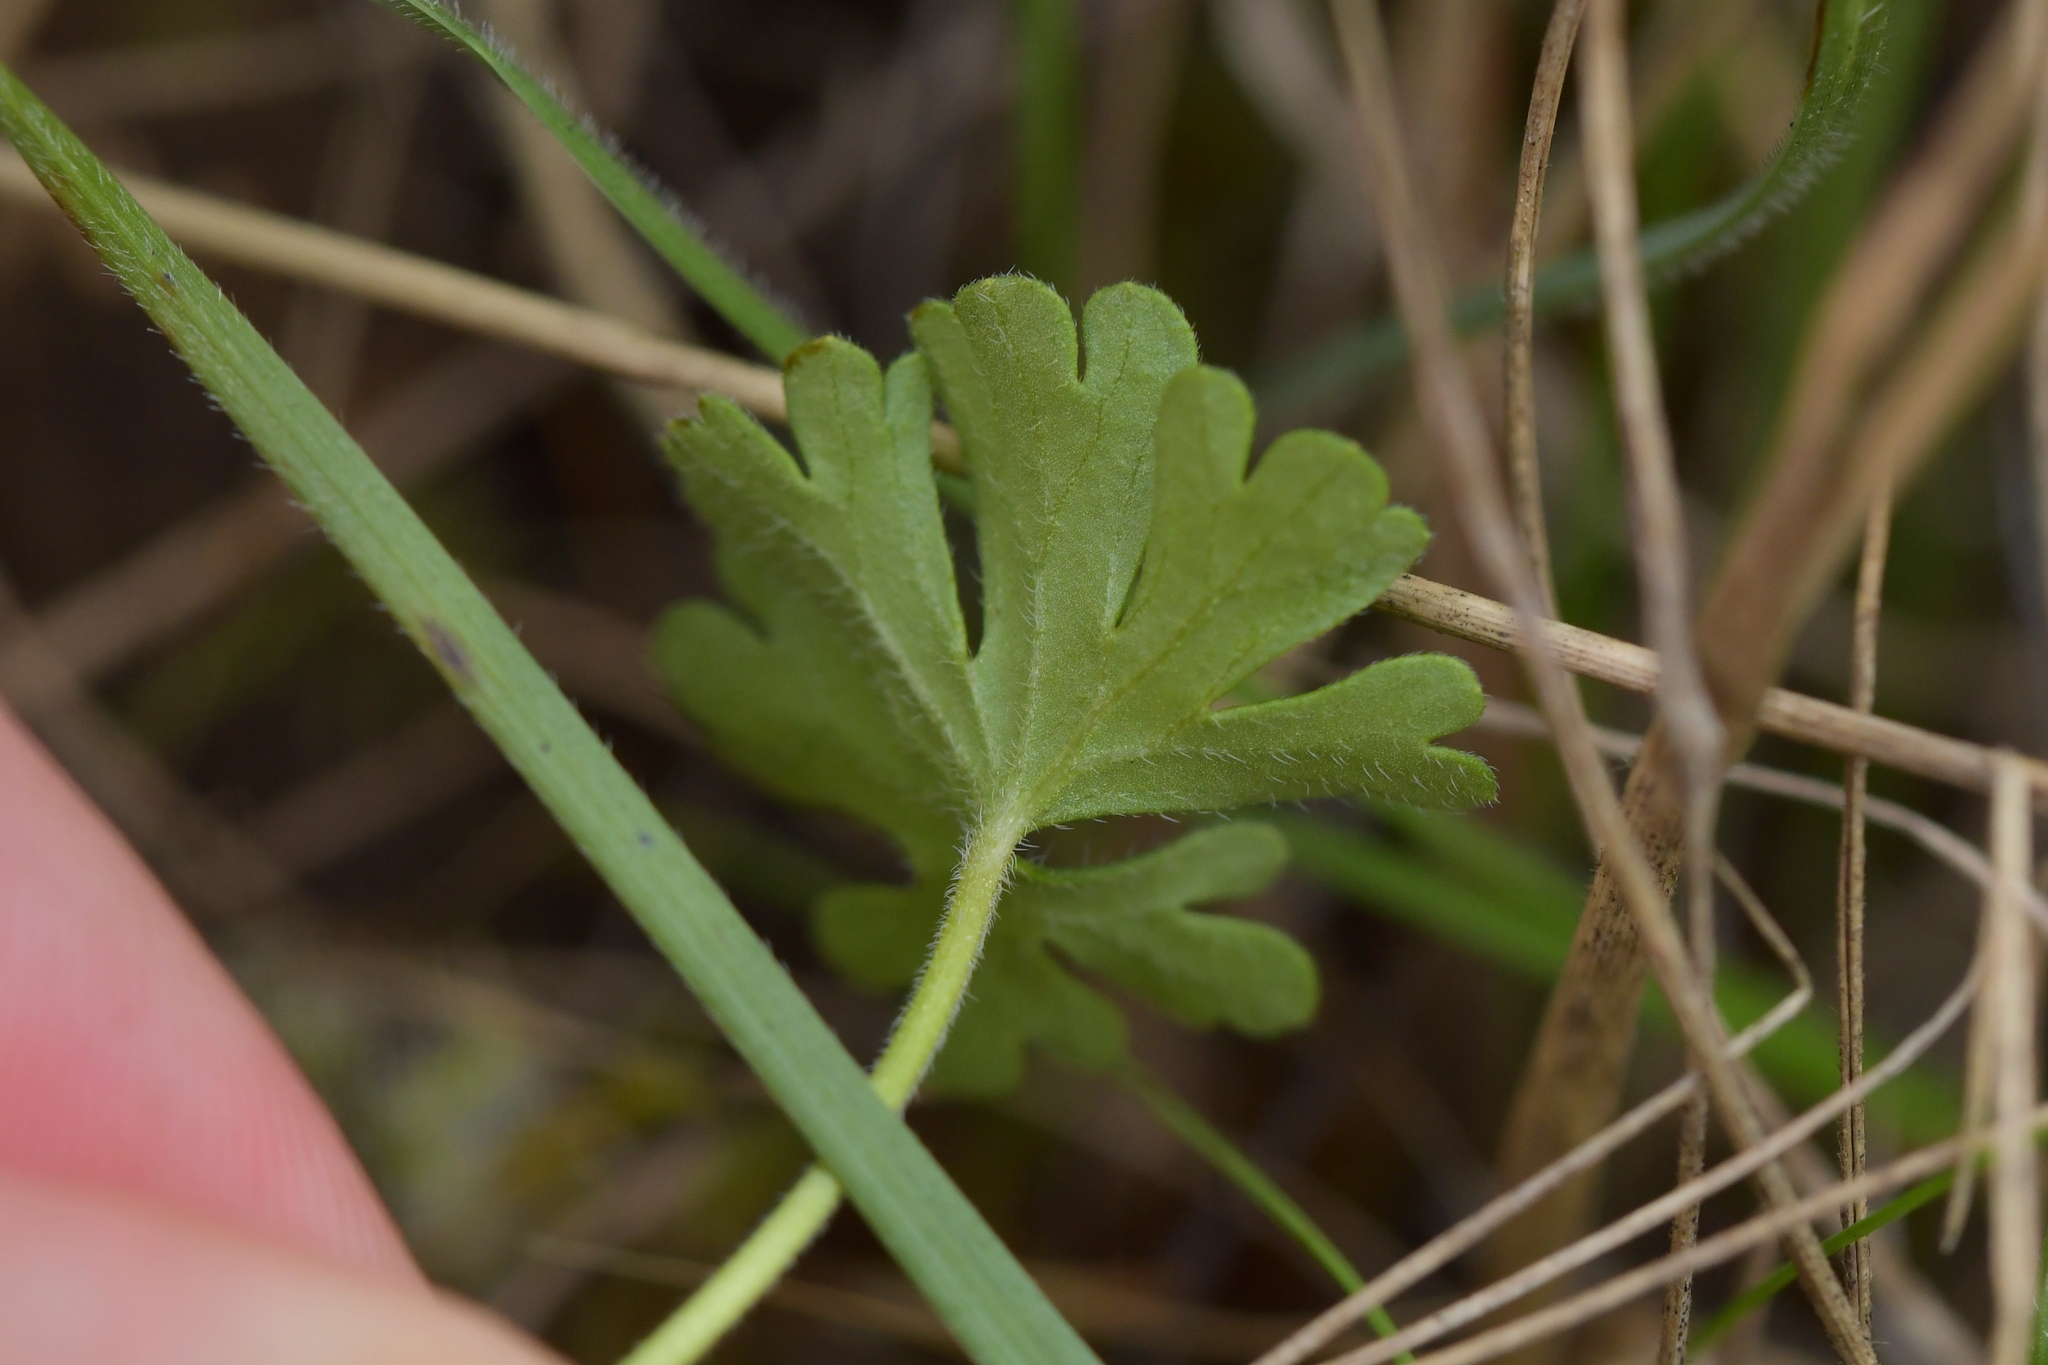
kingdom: Plantae
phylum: Tracheophyta
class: Magnoliopsida
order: Geraniales
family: Geraniaceae
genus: Geranium
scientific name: Geranium retrorsum
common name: New zealand geranium
